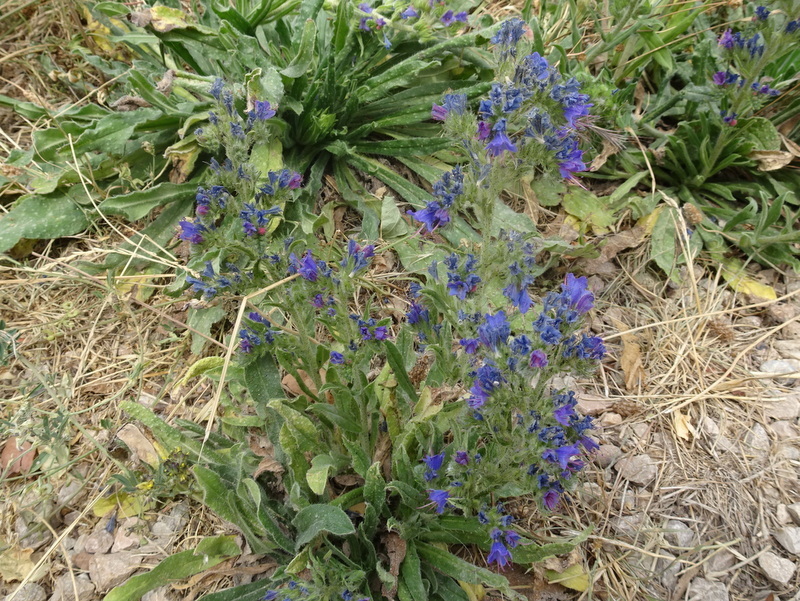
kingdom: Plantae
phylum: Tracheophyta
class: Magnoliopsida
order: Boraginales
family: Boraginaceae
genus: Echium
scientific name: Echium vulgare
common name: Common viper's bugloss
